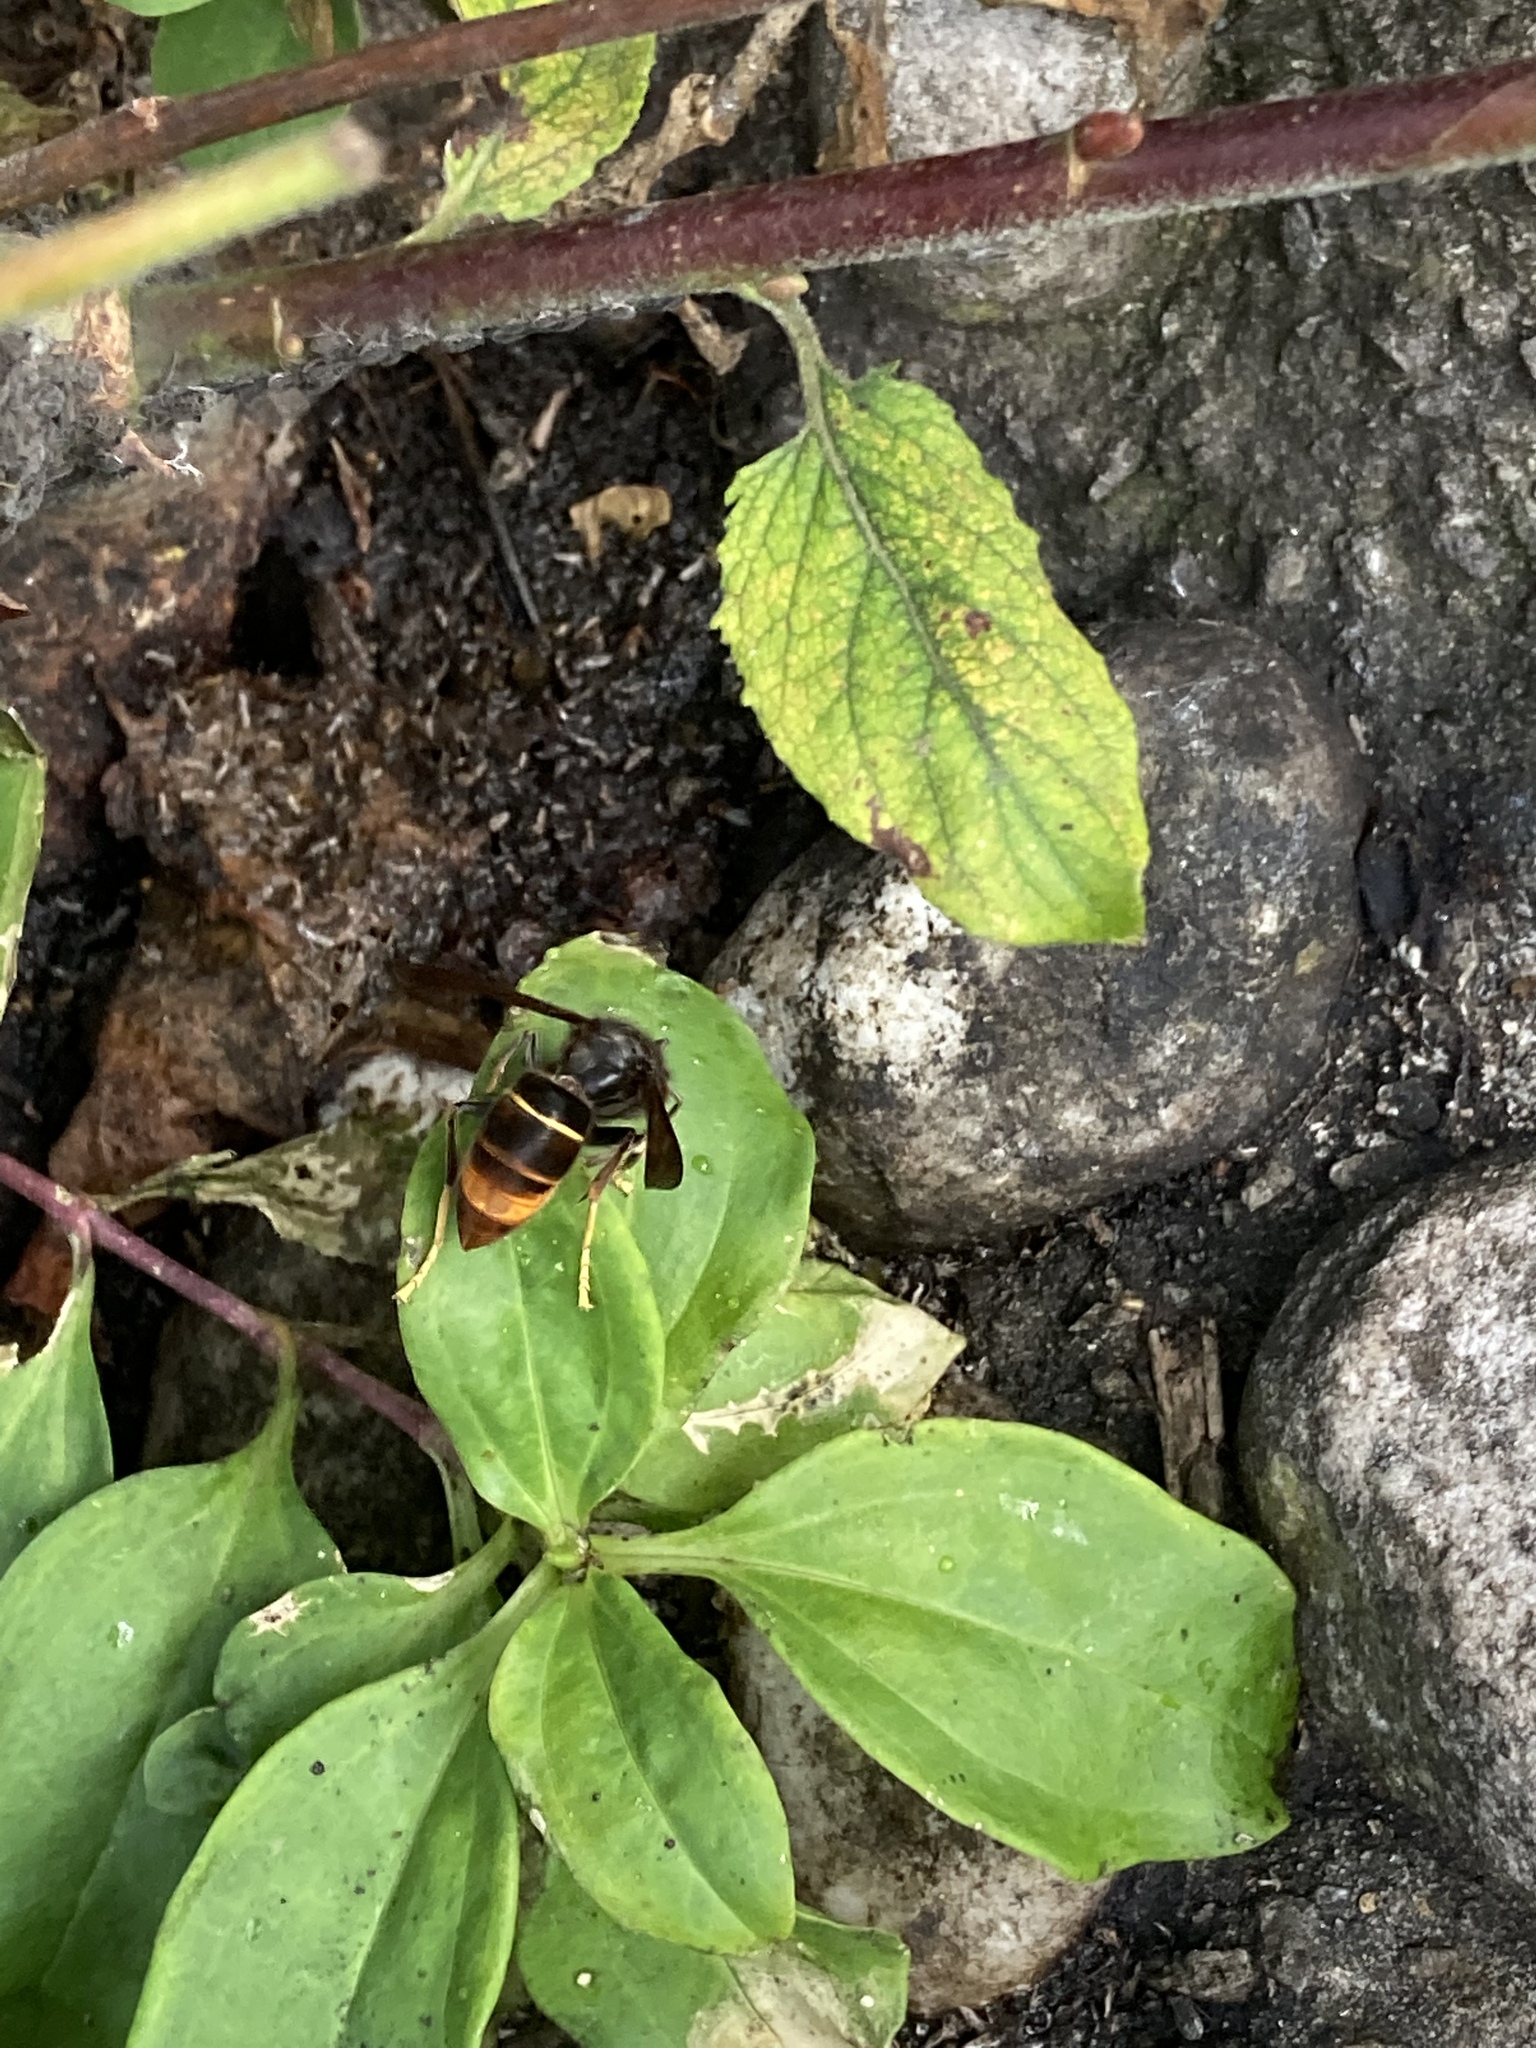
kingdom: Animalia
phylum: Arthropoda
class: Insecta
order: Hymenoptera
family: Vespidae
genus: Vespa
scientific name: Vespa velutina
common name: Asian hornet
